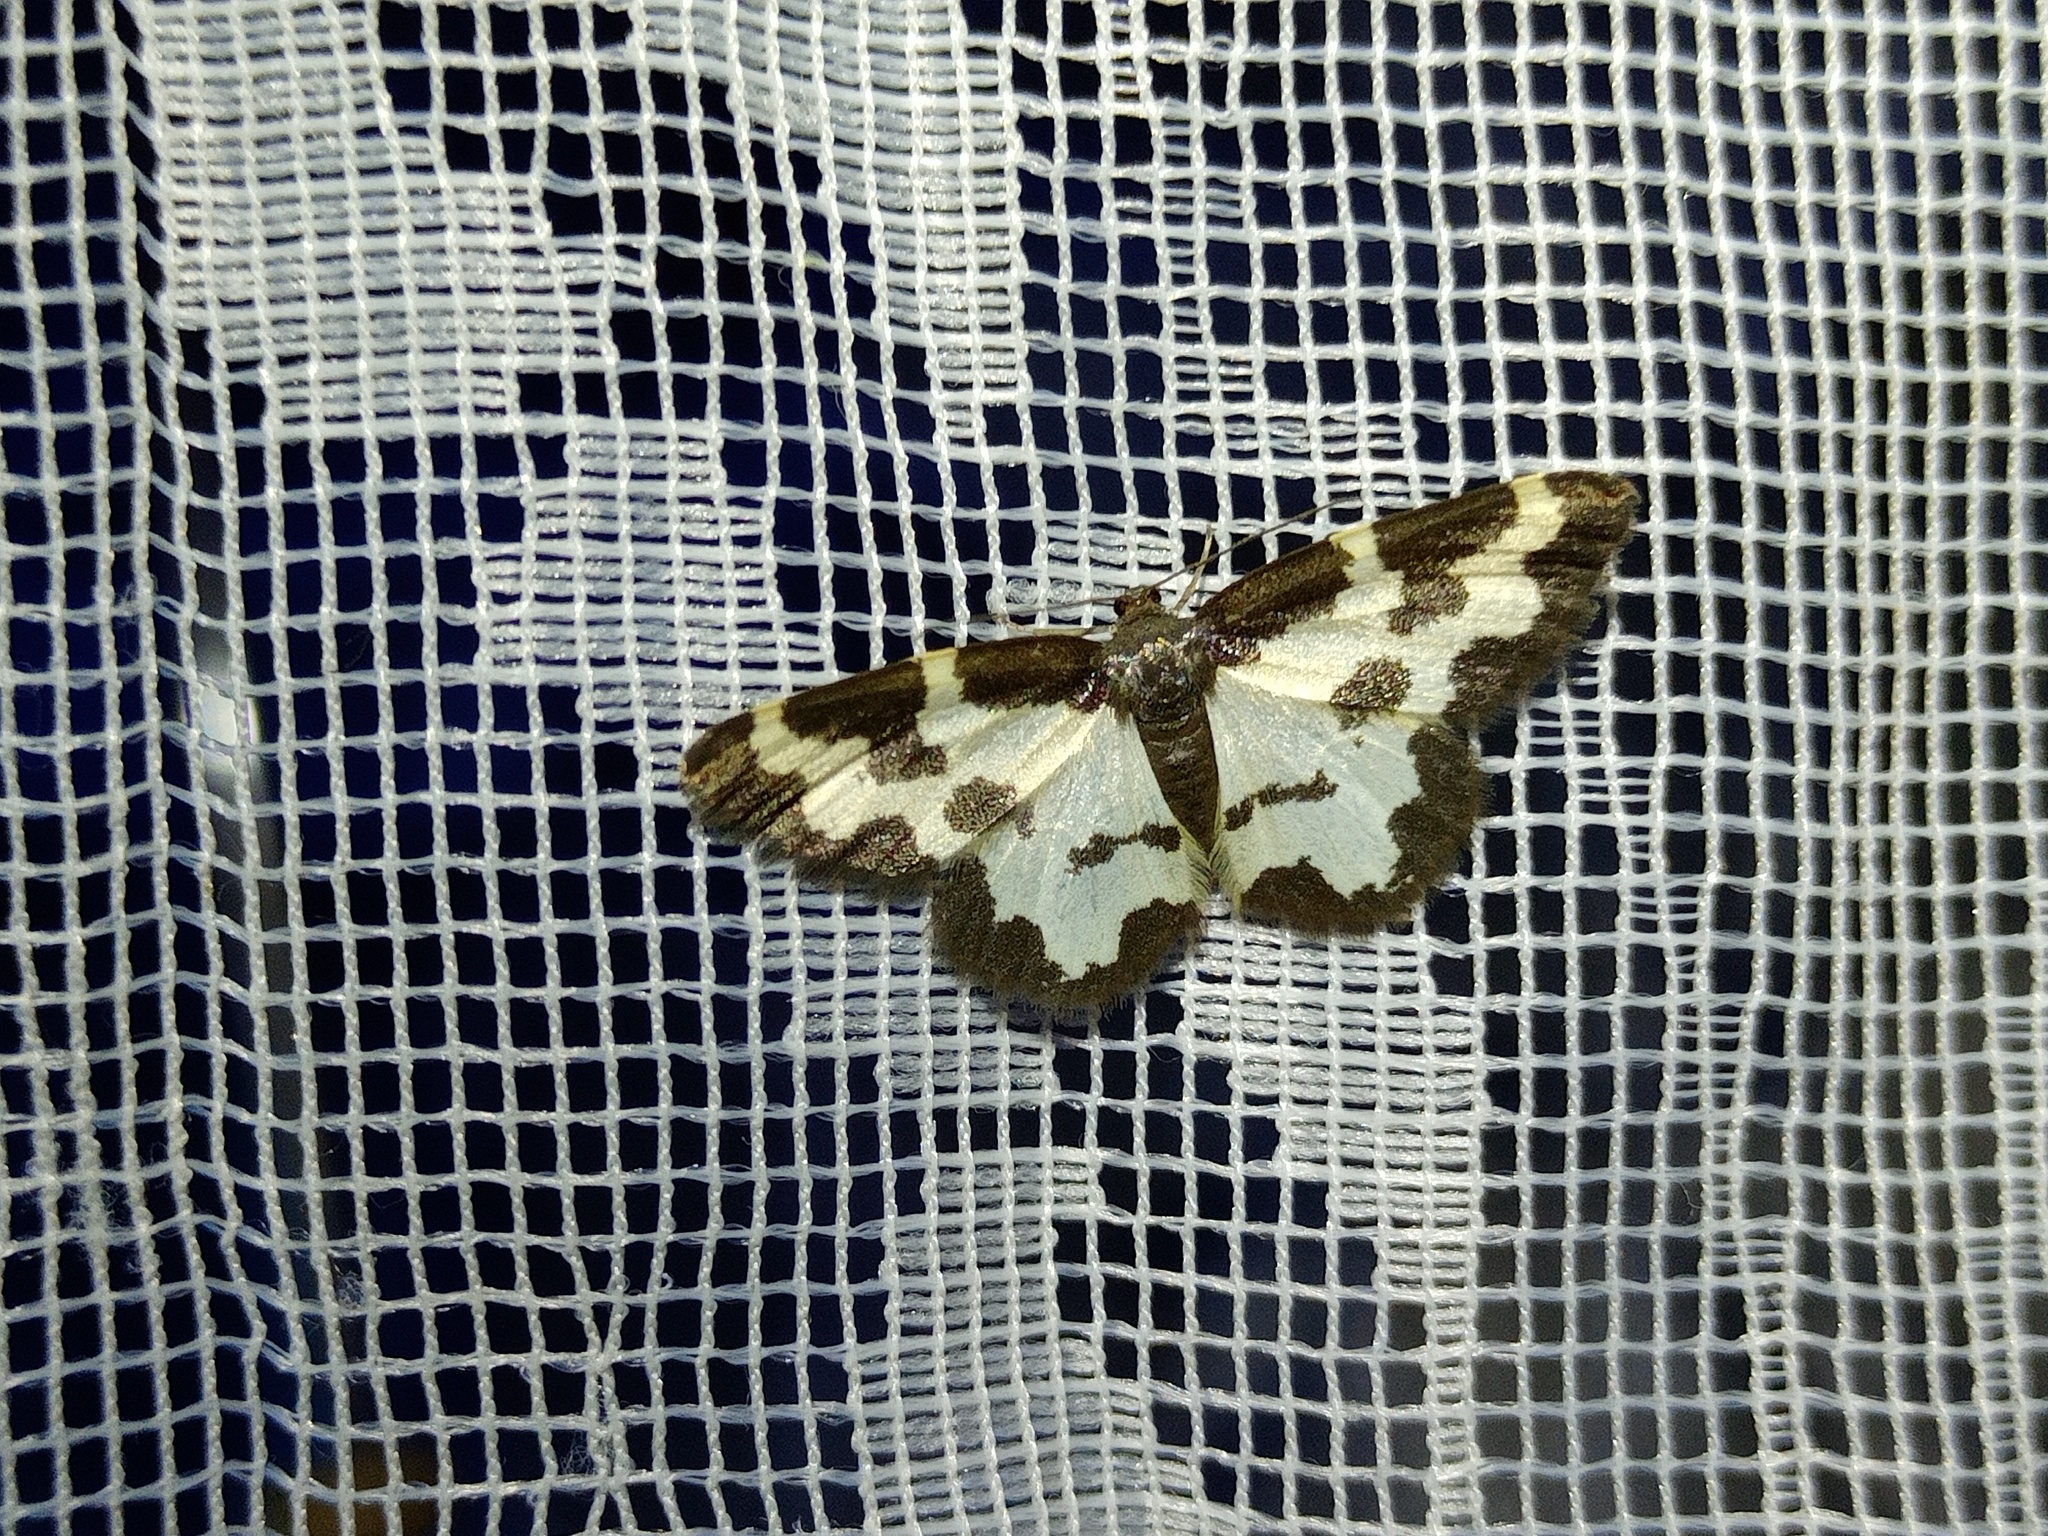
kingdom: Animalia
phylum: Arthropoda
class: Insecta
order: Lepidoptera
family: Geometridae
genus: Lomaspilis
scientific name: Lomaspilis marginata
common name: Clouded border
